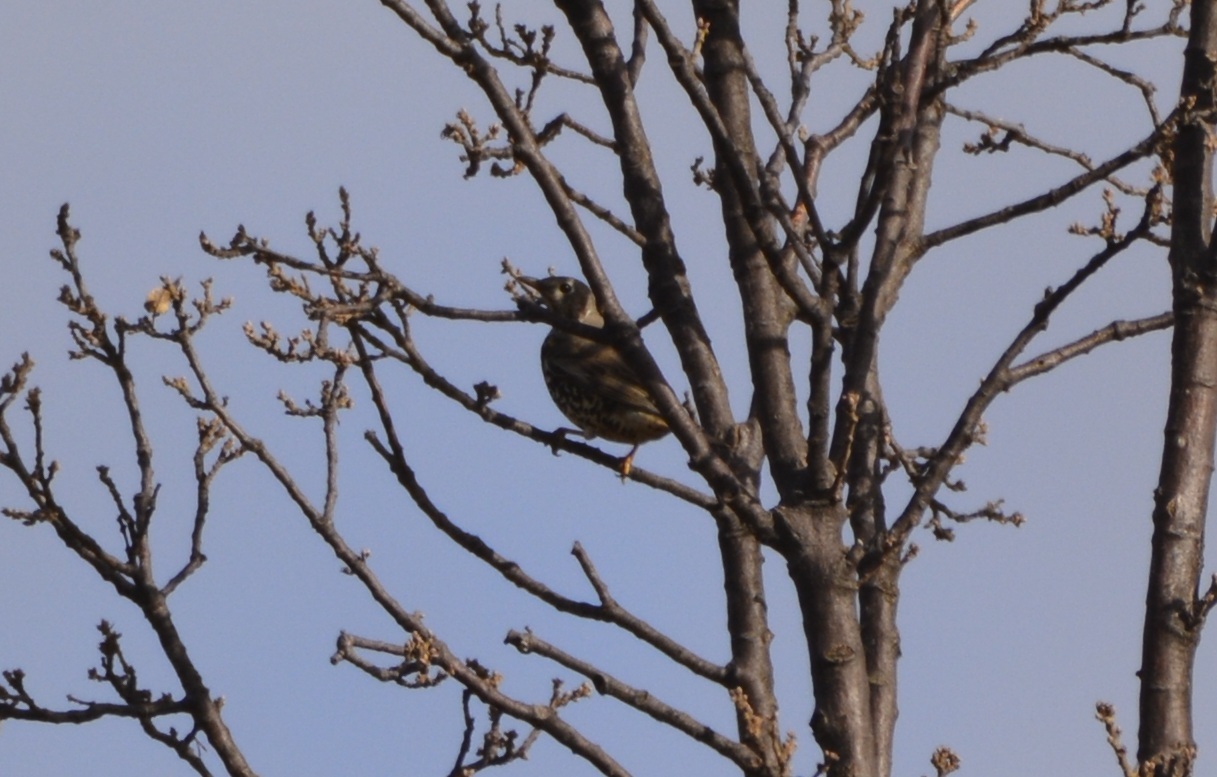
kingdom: Animalia
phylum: Chordata
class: Aves
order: Passeriformes
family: Turdidae
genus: Turdus
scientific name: Turdus viscivorus
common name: Mistle thrush
